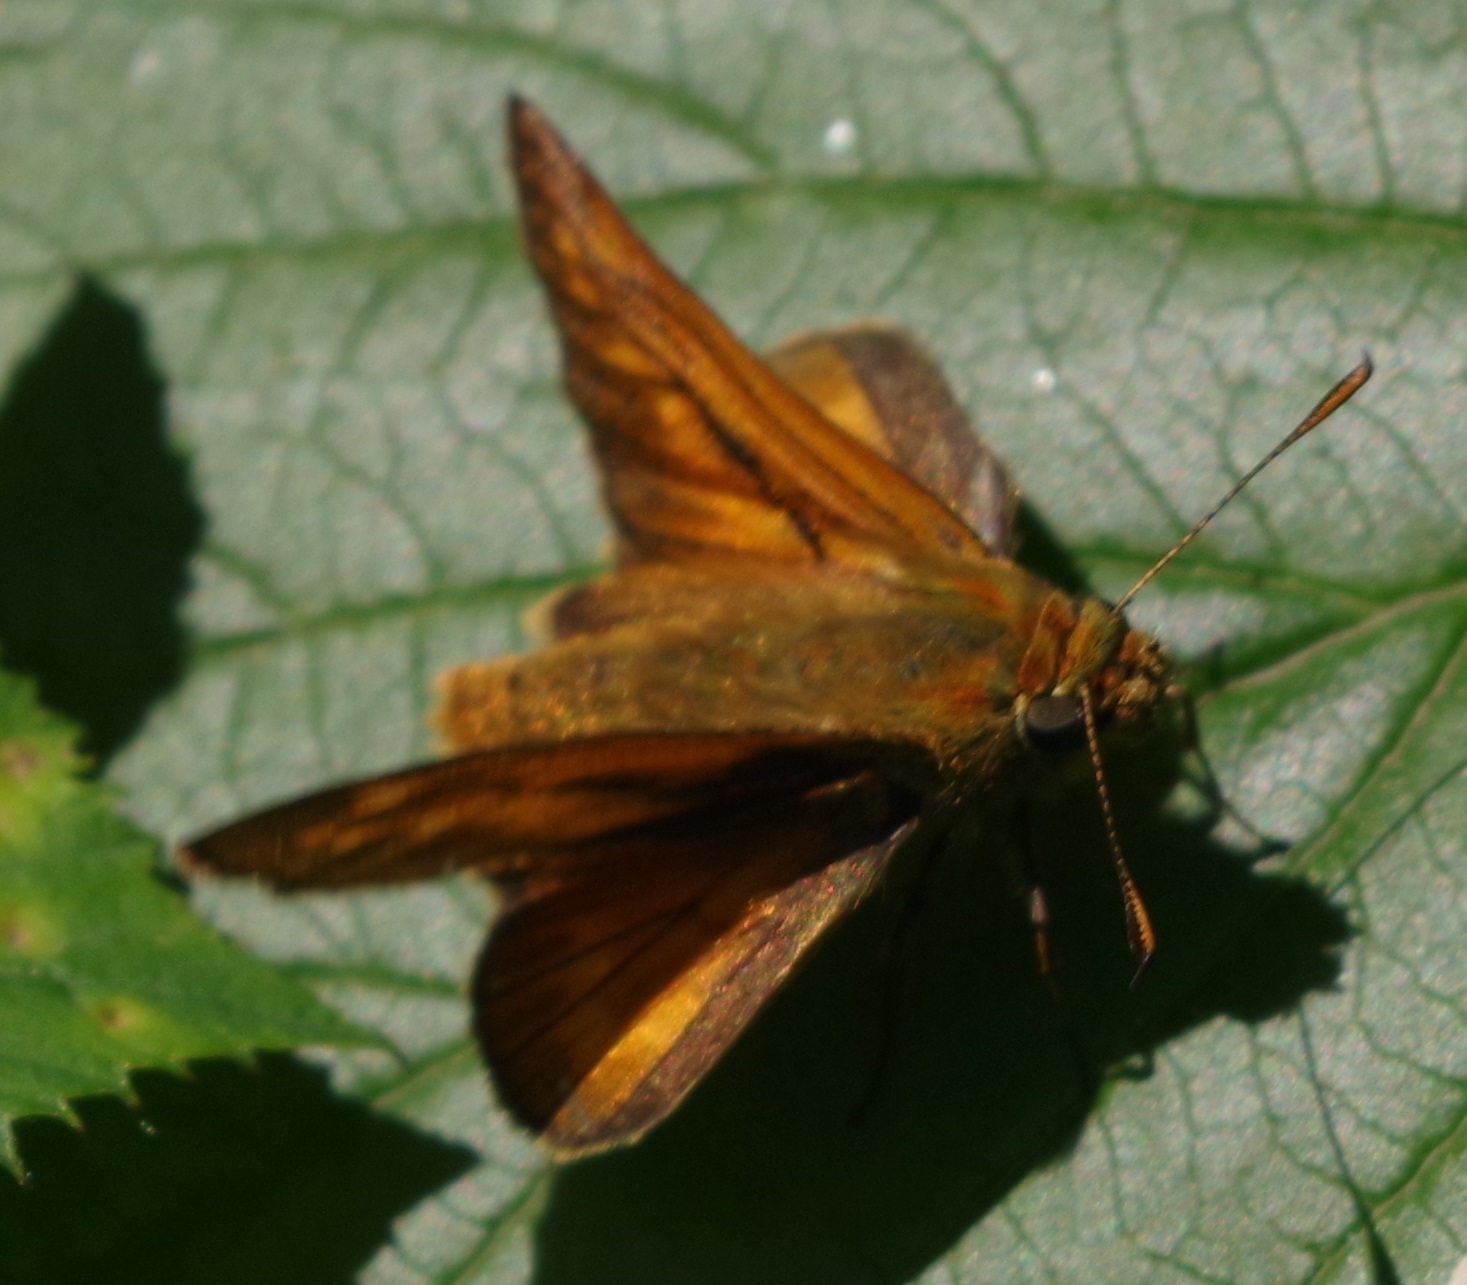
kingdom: Animalia
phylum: Arthropoda
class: Insecta
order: Lepidoptera
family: Hesperiidae
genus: Ochlodes
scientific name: Ochlodes venata
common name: Large skipper
